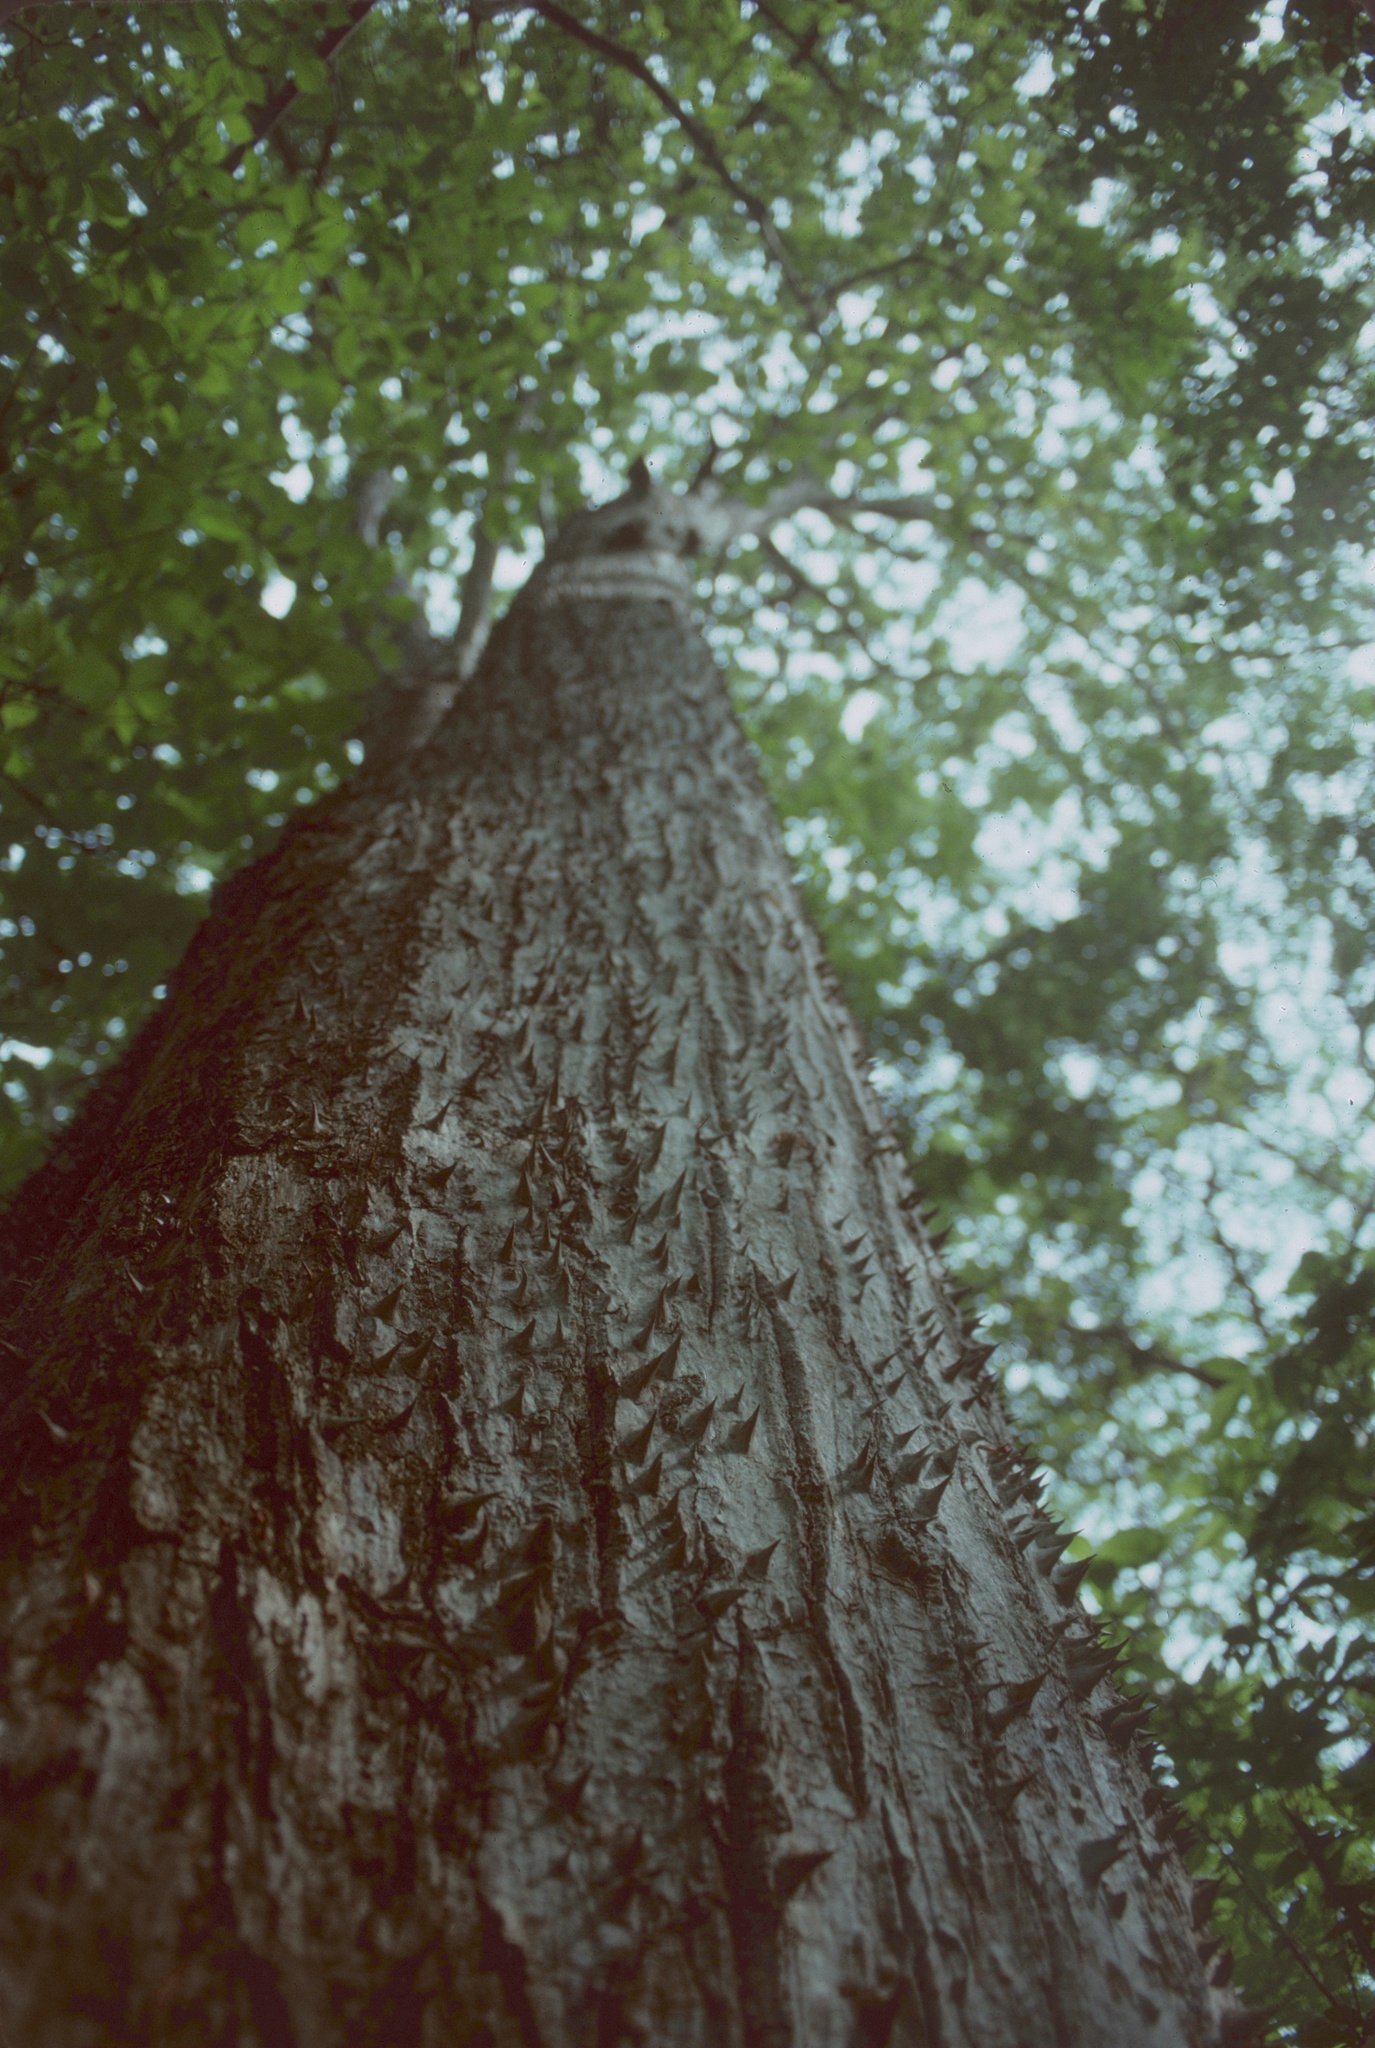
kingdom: Plantae
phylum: Tracheophyta
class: Magnoliopsida
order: Malvales
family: Malvaceae
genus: Pochota
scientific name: Pochota fendleri
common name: Chestnut
